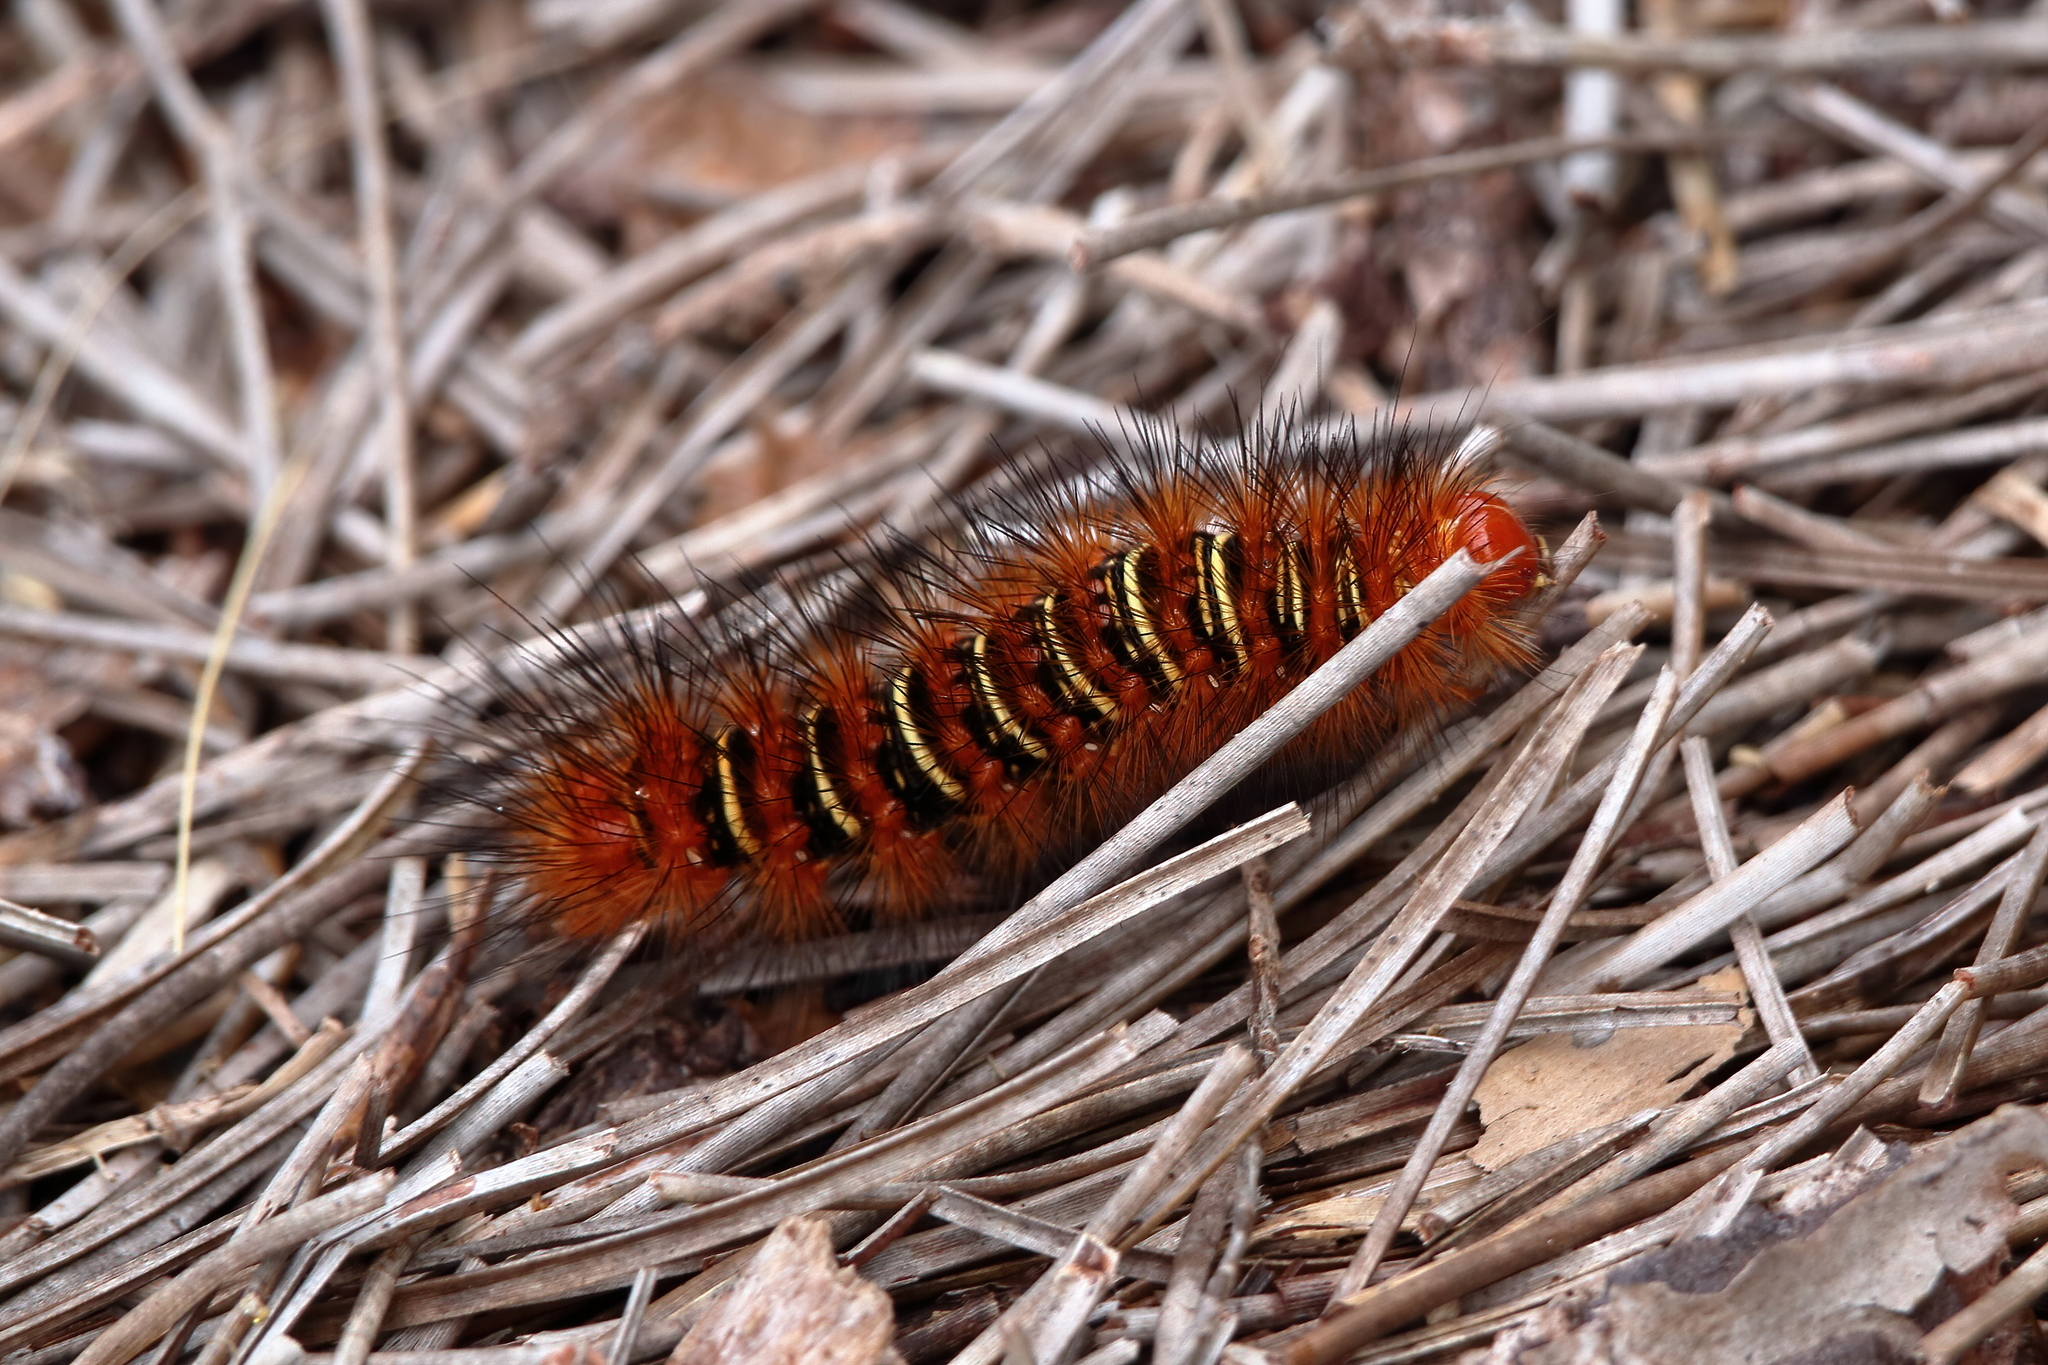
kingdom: Animalia
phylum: Arthropoda
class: Insecta
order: Lepidoptera
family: Erebidae
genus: Seirarctia
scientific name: Seirarctia echo
